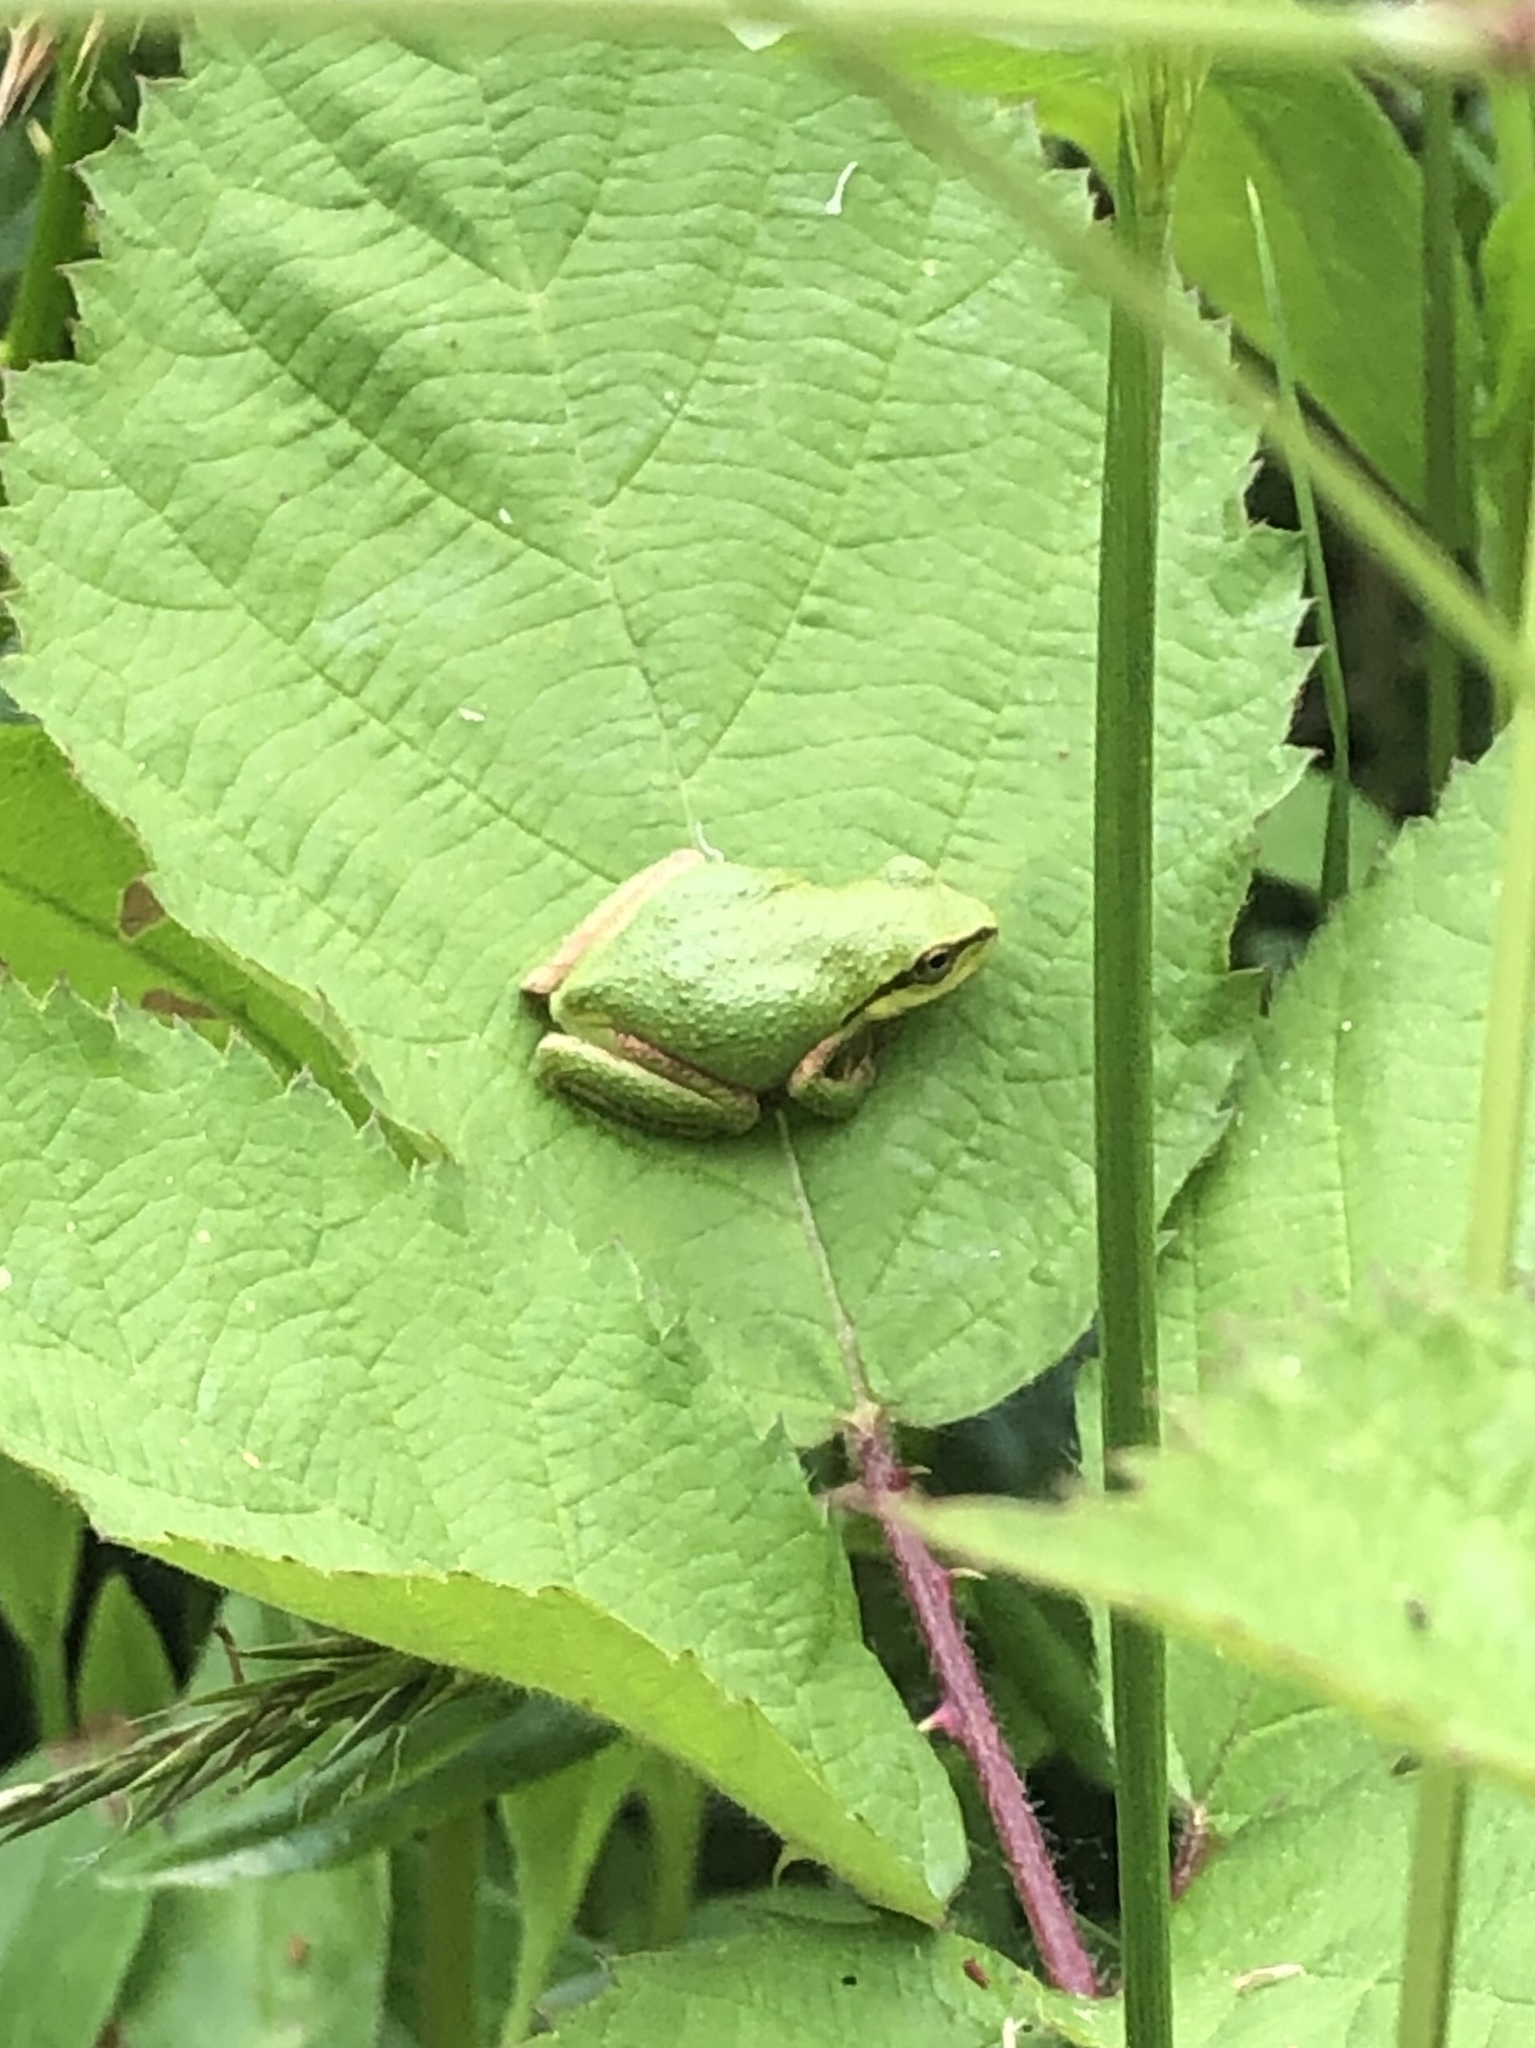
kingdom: Animalia
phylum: Chordata
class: Amphibia
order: Anura
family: Hylidae
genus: Pseudacris
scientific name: Pseudacris regilla
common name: Pacific chorus frog
